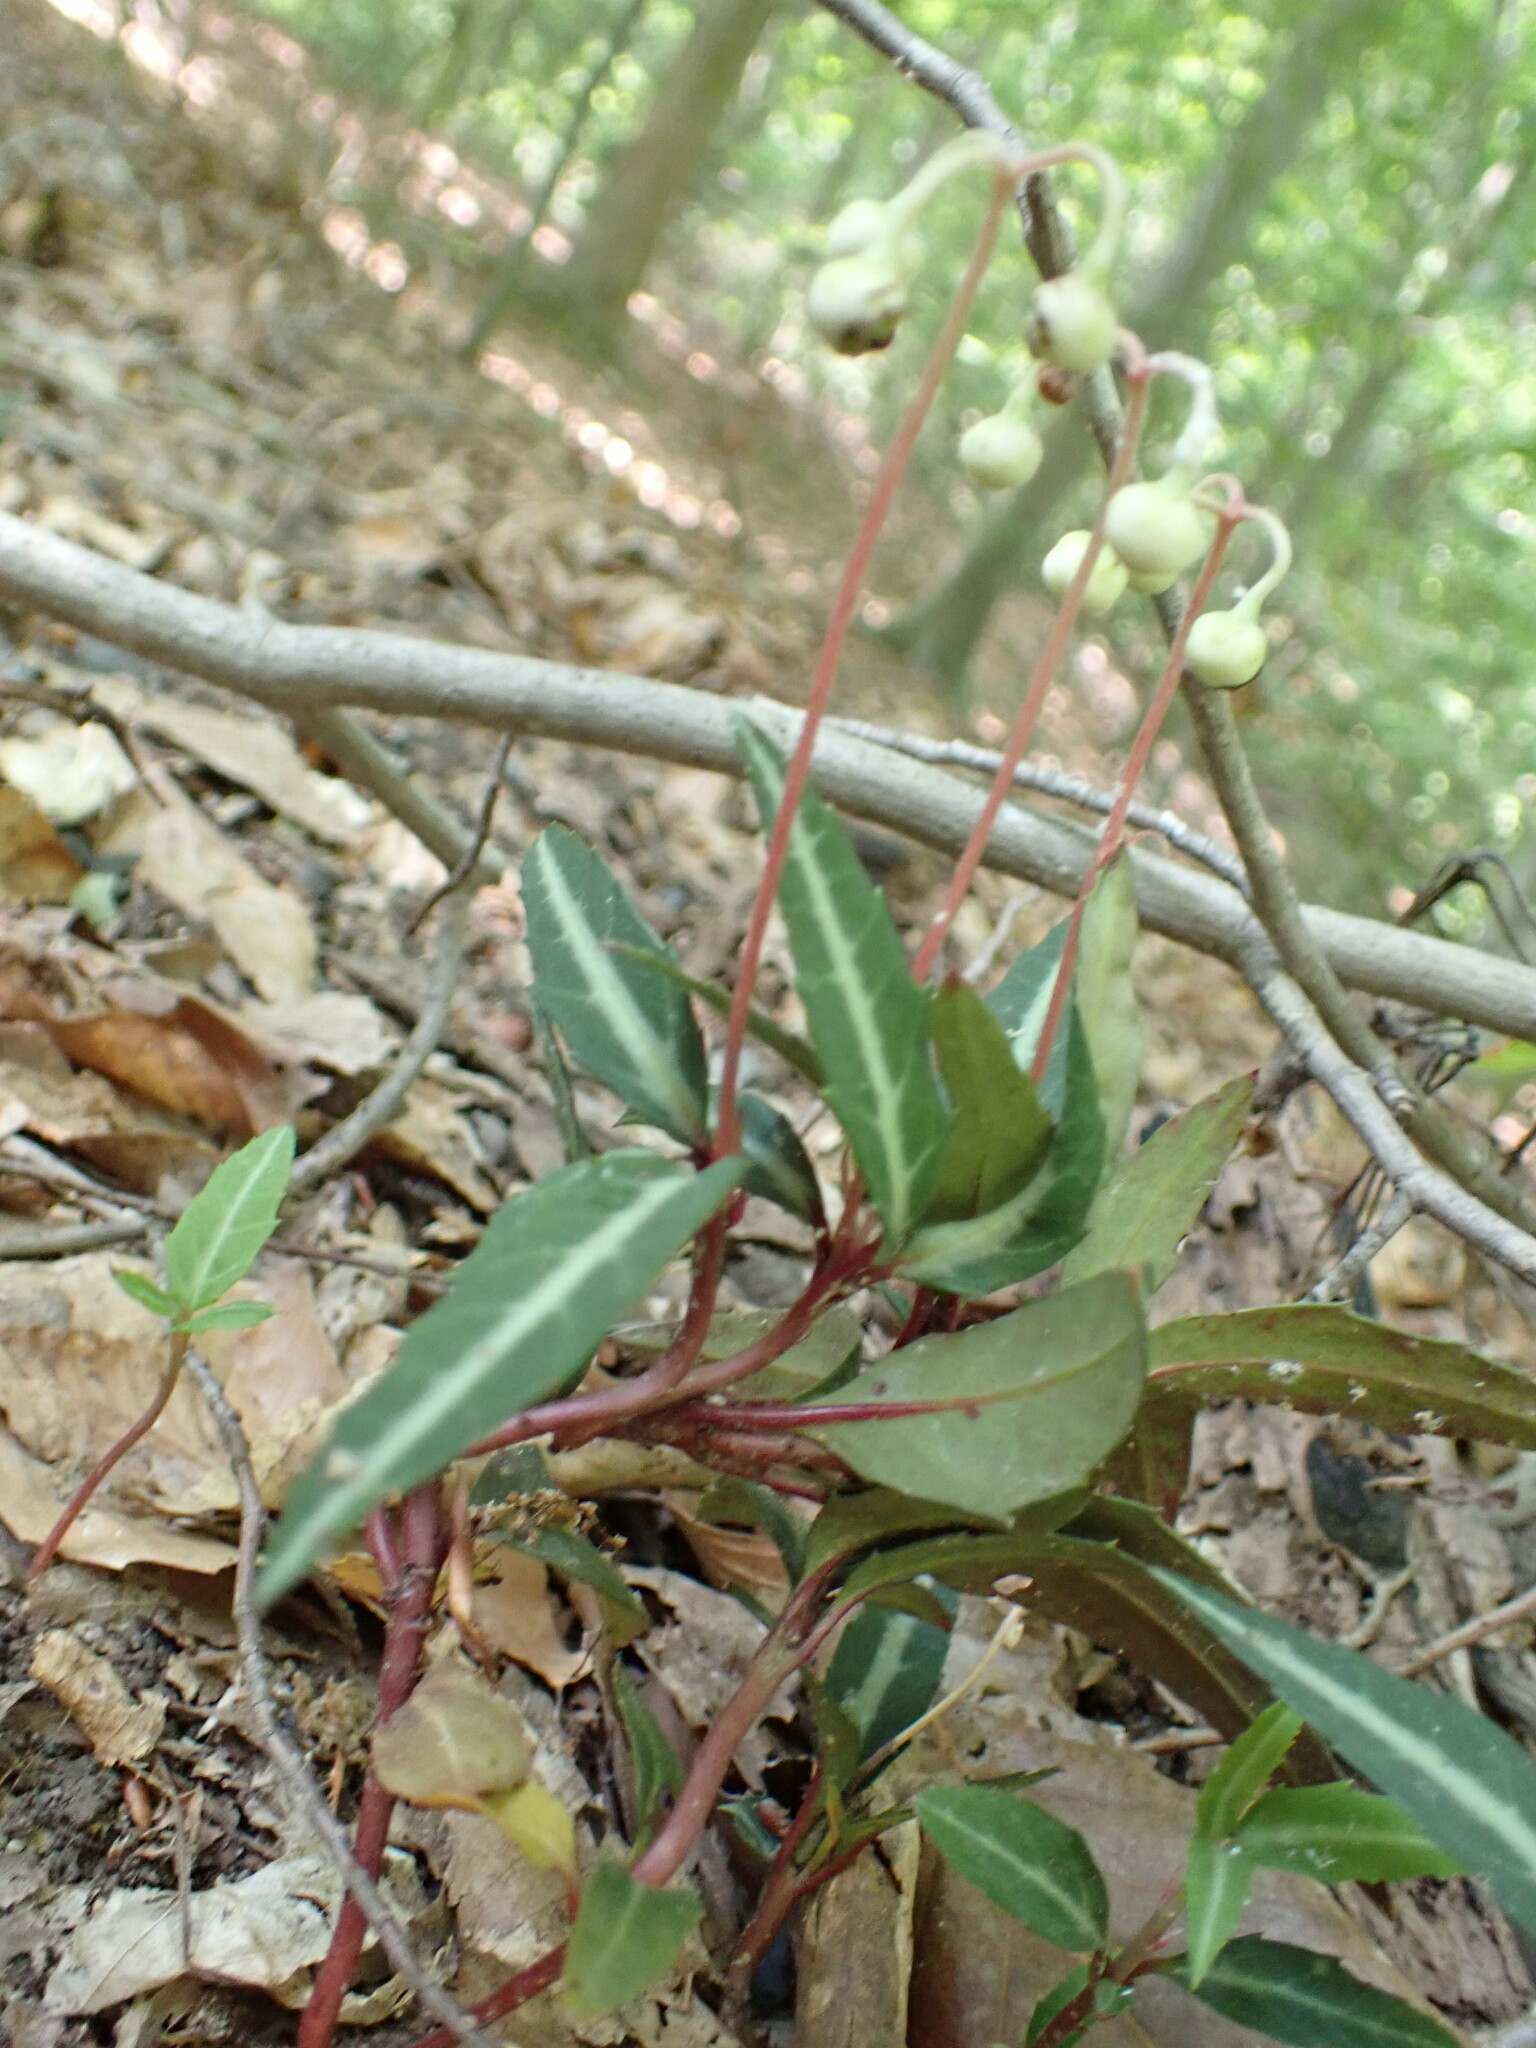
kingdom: Plantae
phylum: Tracheophyta
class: Magnoliopsida
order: Ericales
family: Ericaceae
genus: Chimaphila
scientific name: Chimaphila maculata
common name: Spotted pipsissewa
